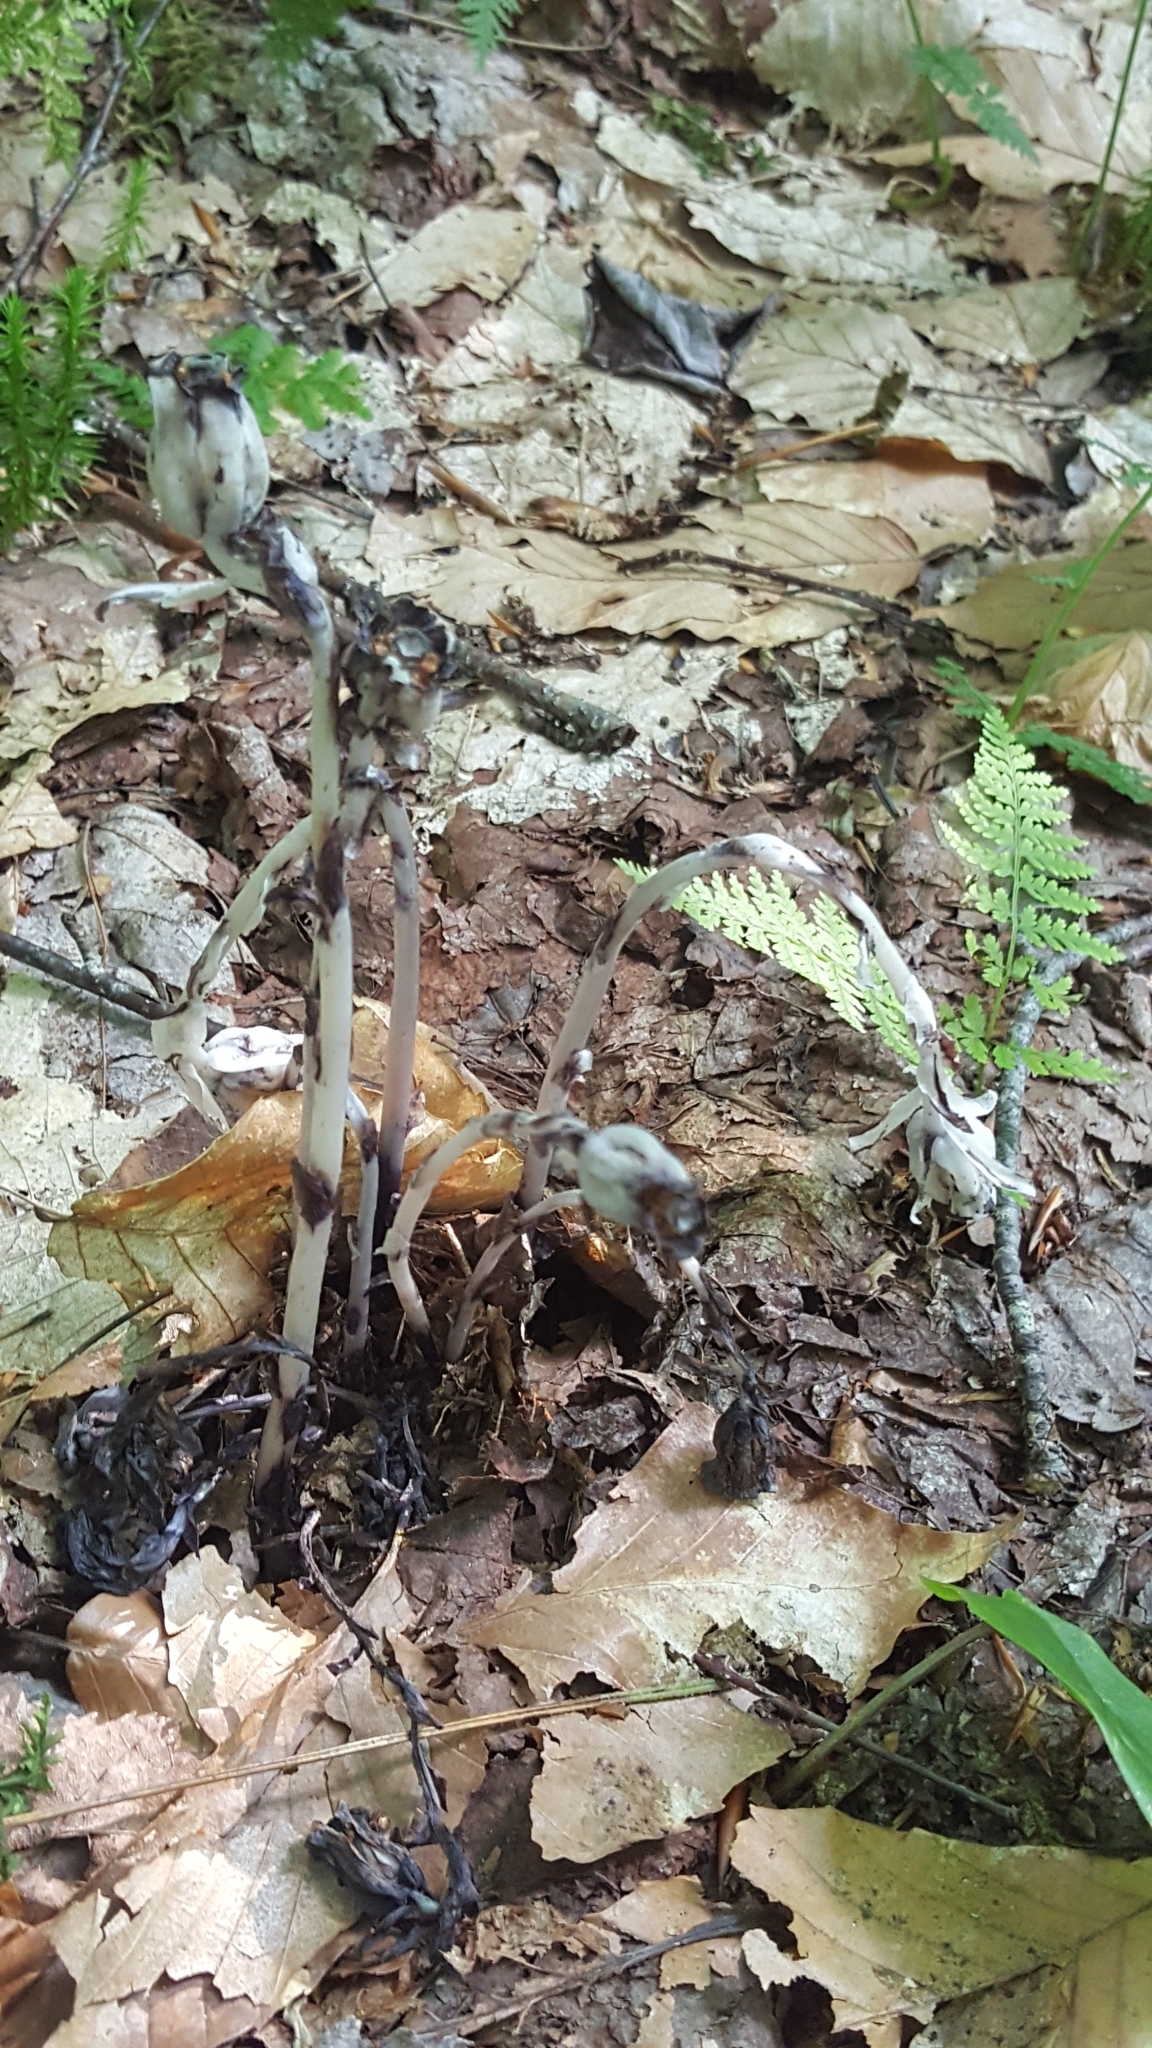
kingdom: Plantae
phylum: Tracheophyta
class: Magnoliopsida
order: Ericales
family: Ericaceae
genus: Monotropa
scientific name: Monotropa uniflora
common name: Convulsion root
